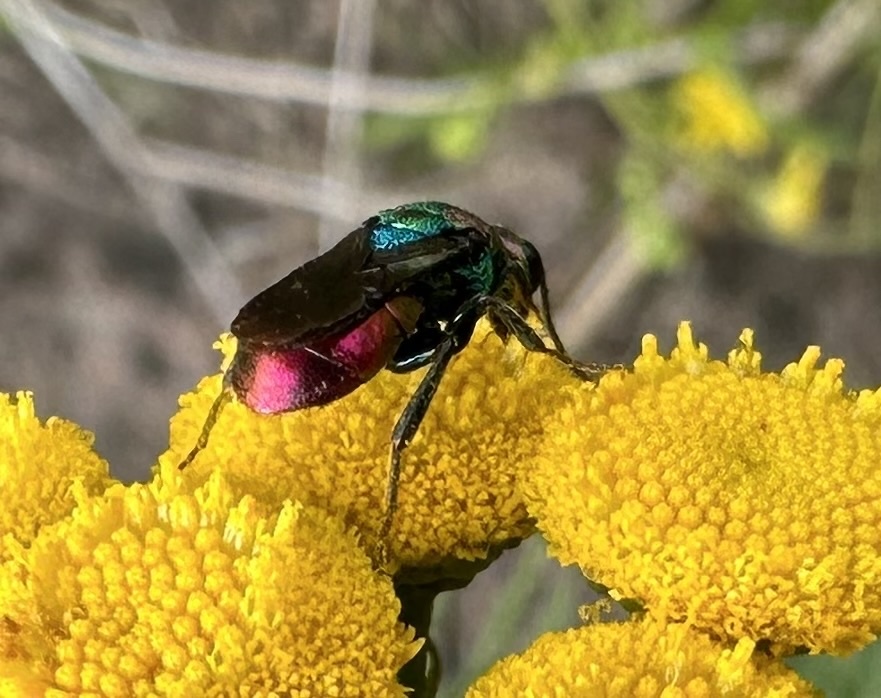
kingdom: Animalia
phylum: Arthropoda
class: Insecta
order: Hymenoptera
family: Chrysididae
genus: Hedychrum
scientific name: Hedychrum rutilans
